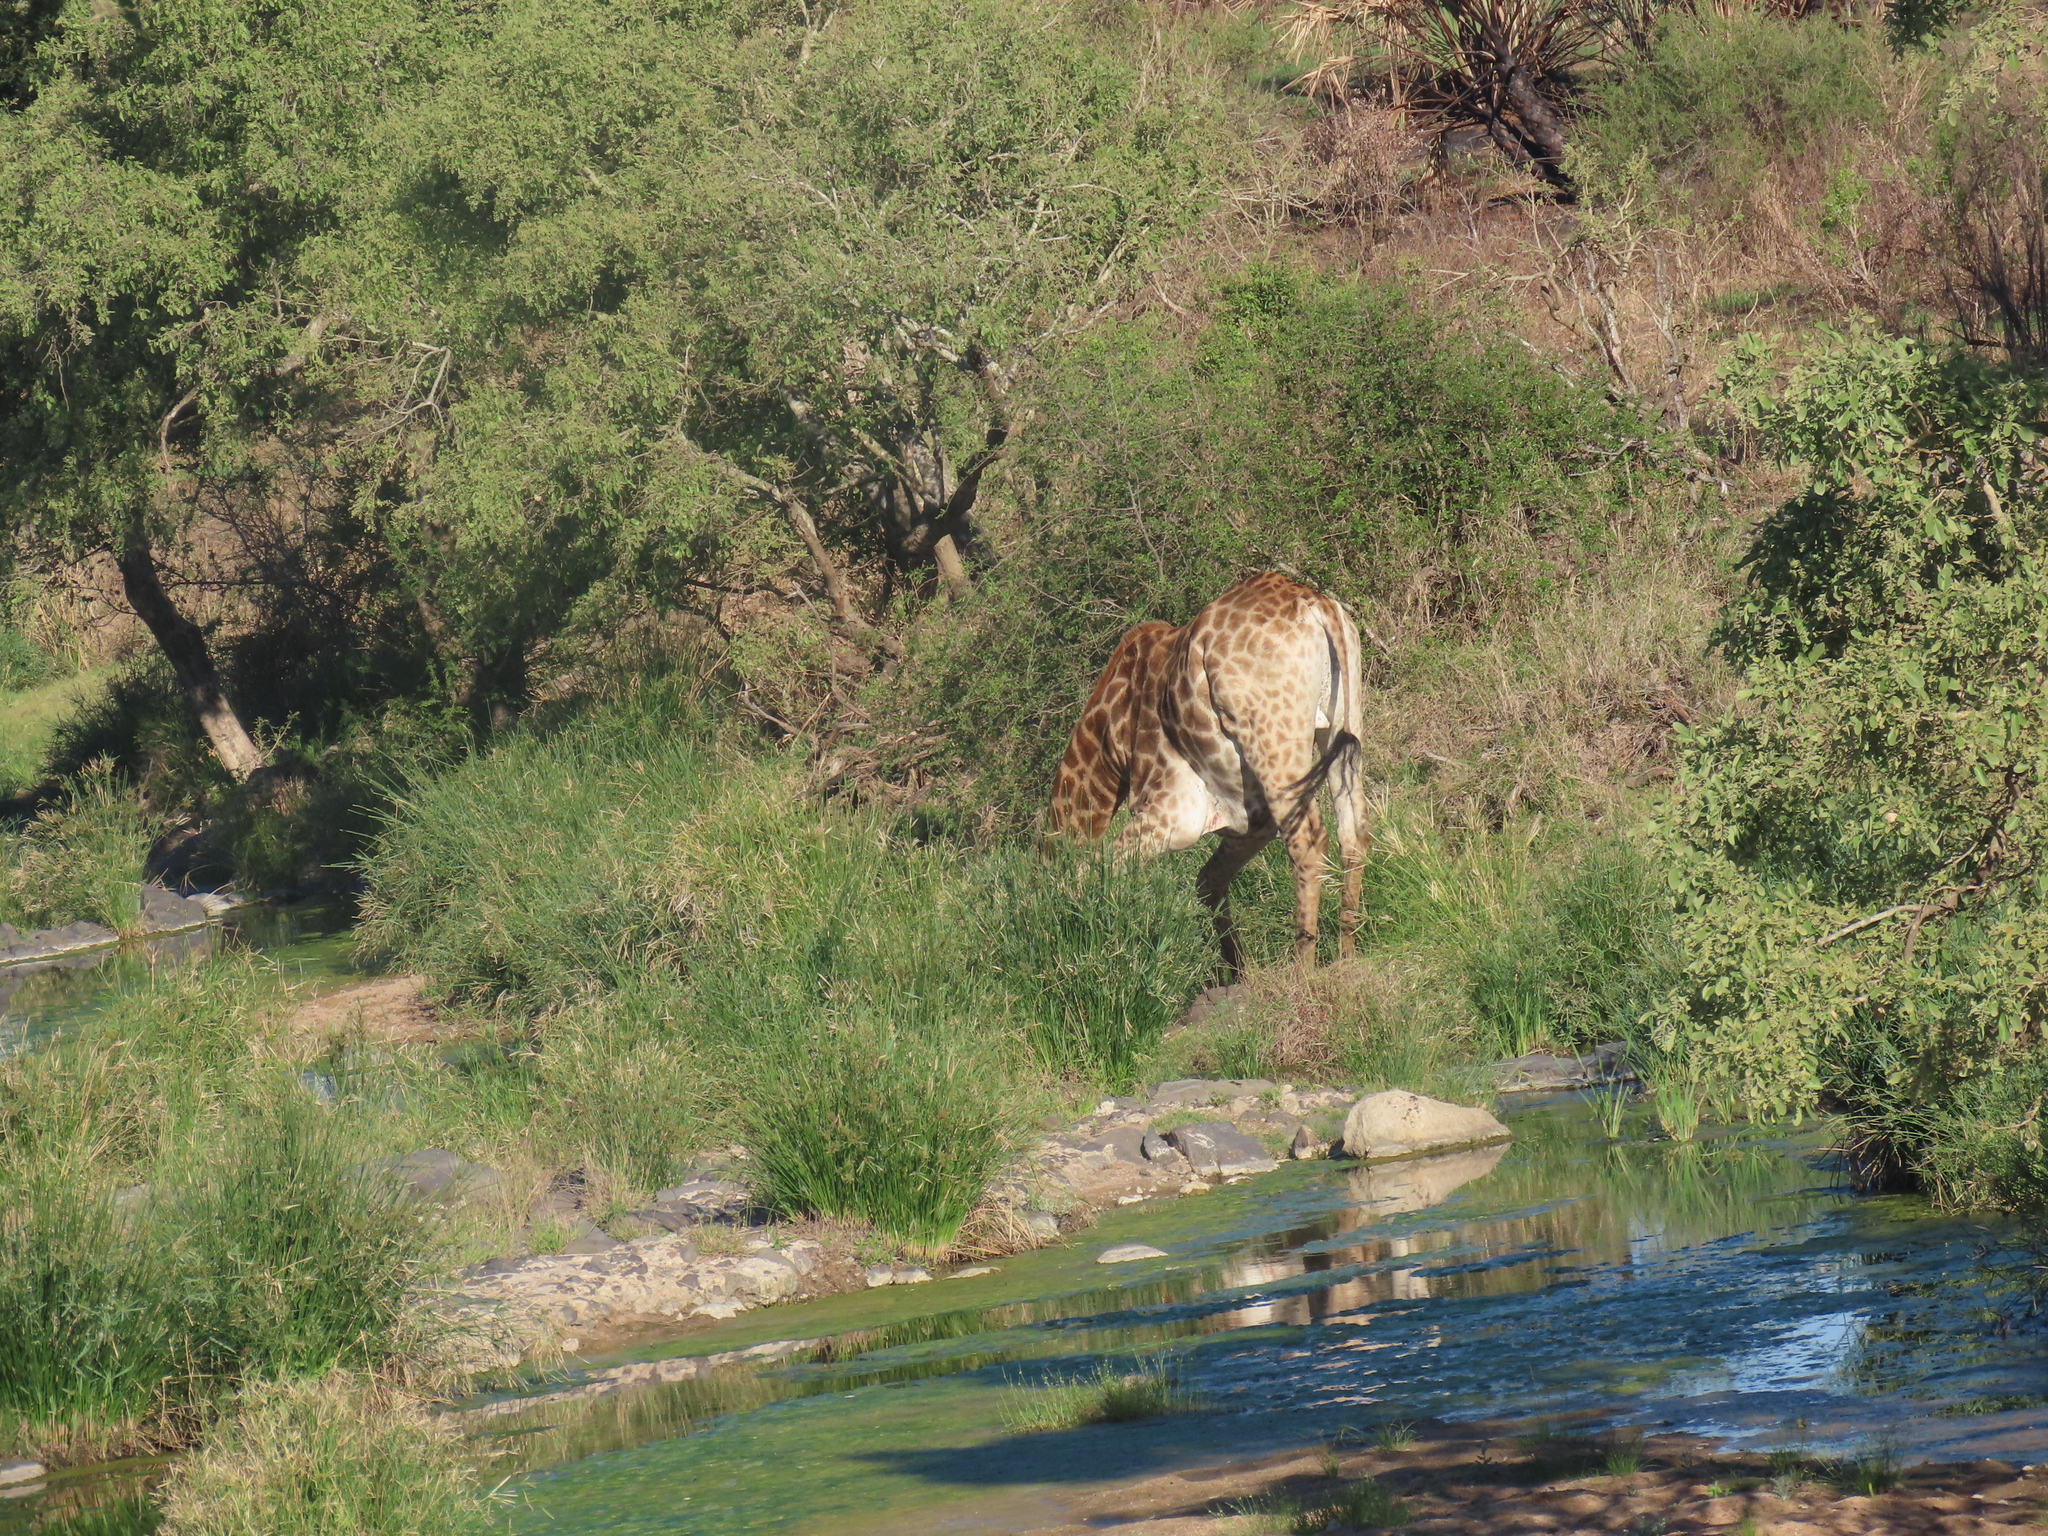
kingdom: Animalia
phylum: Chordata
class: Mammalia
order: Artiodactyla
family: Giraffidae
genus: Giraffa
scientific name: Giraffa giraffa
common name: Southern giraffe
